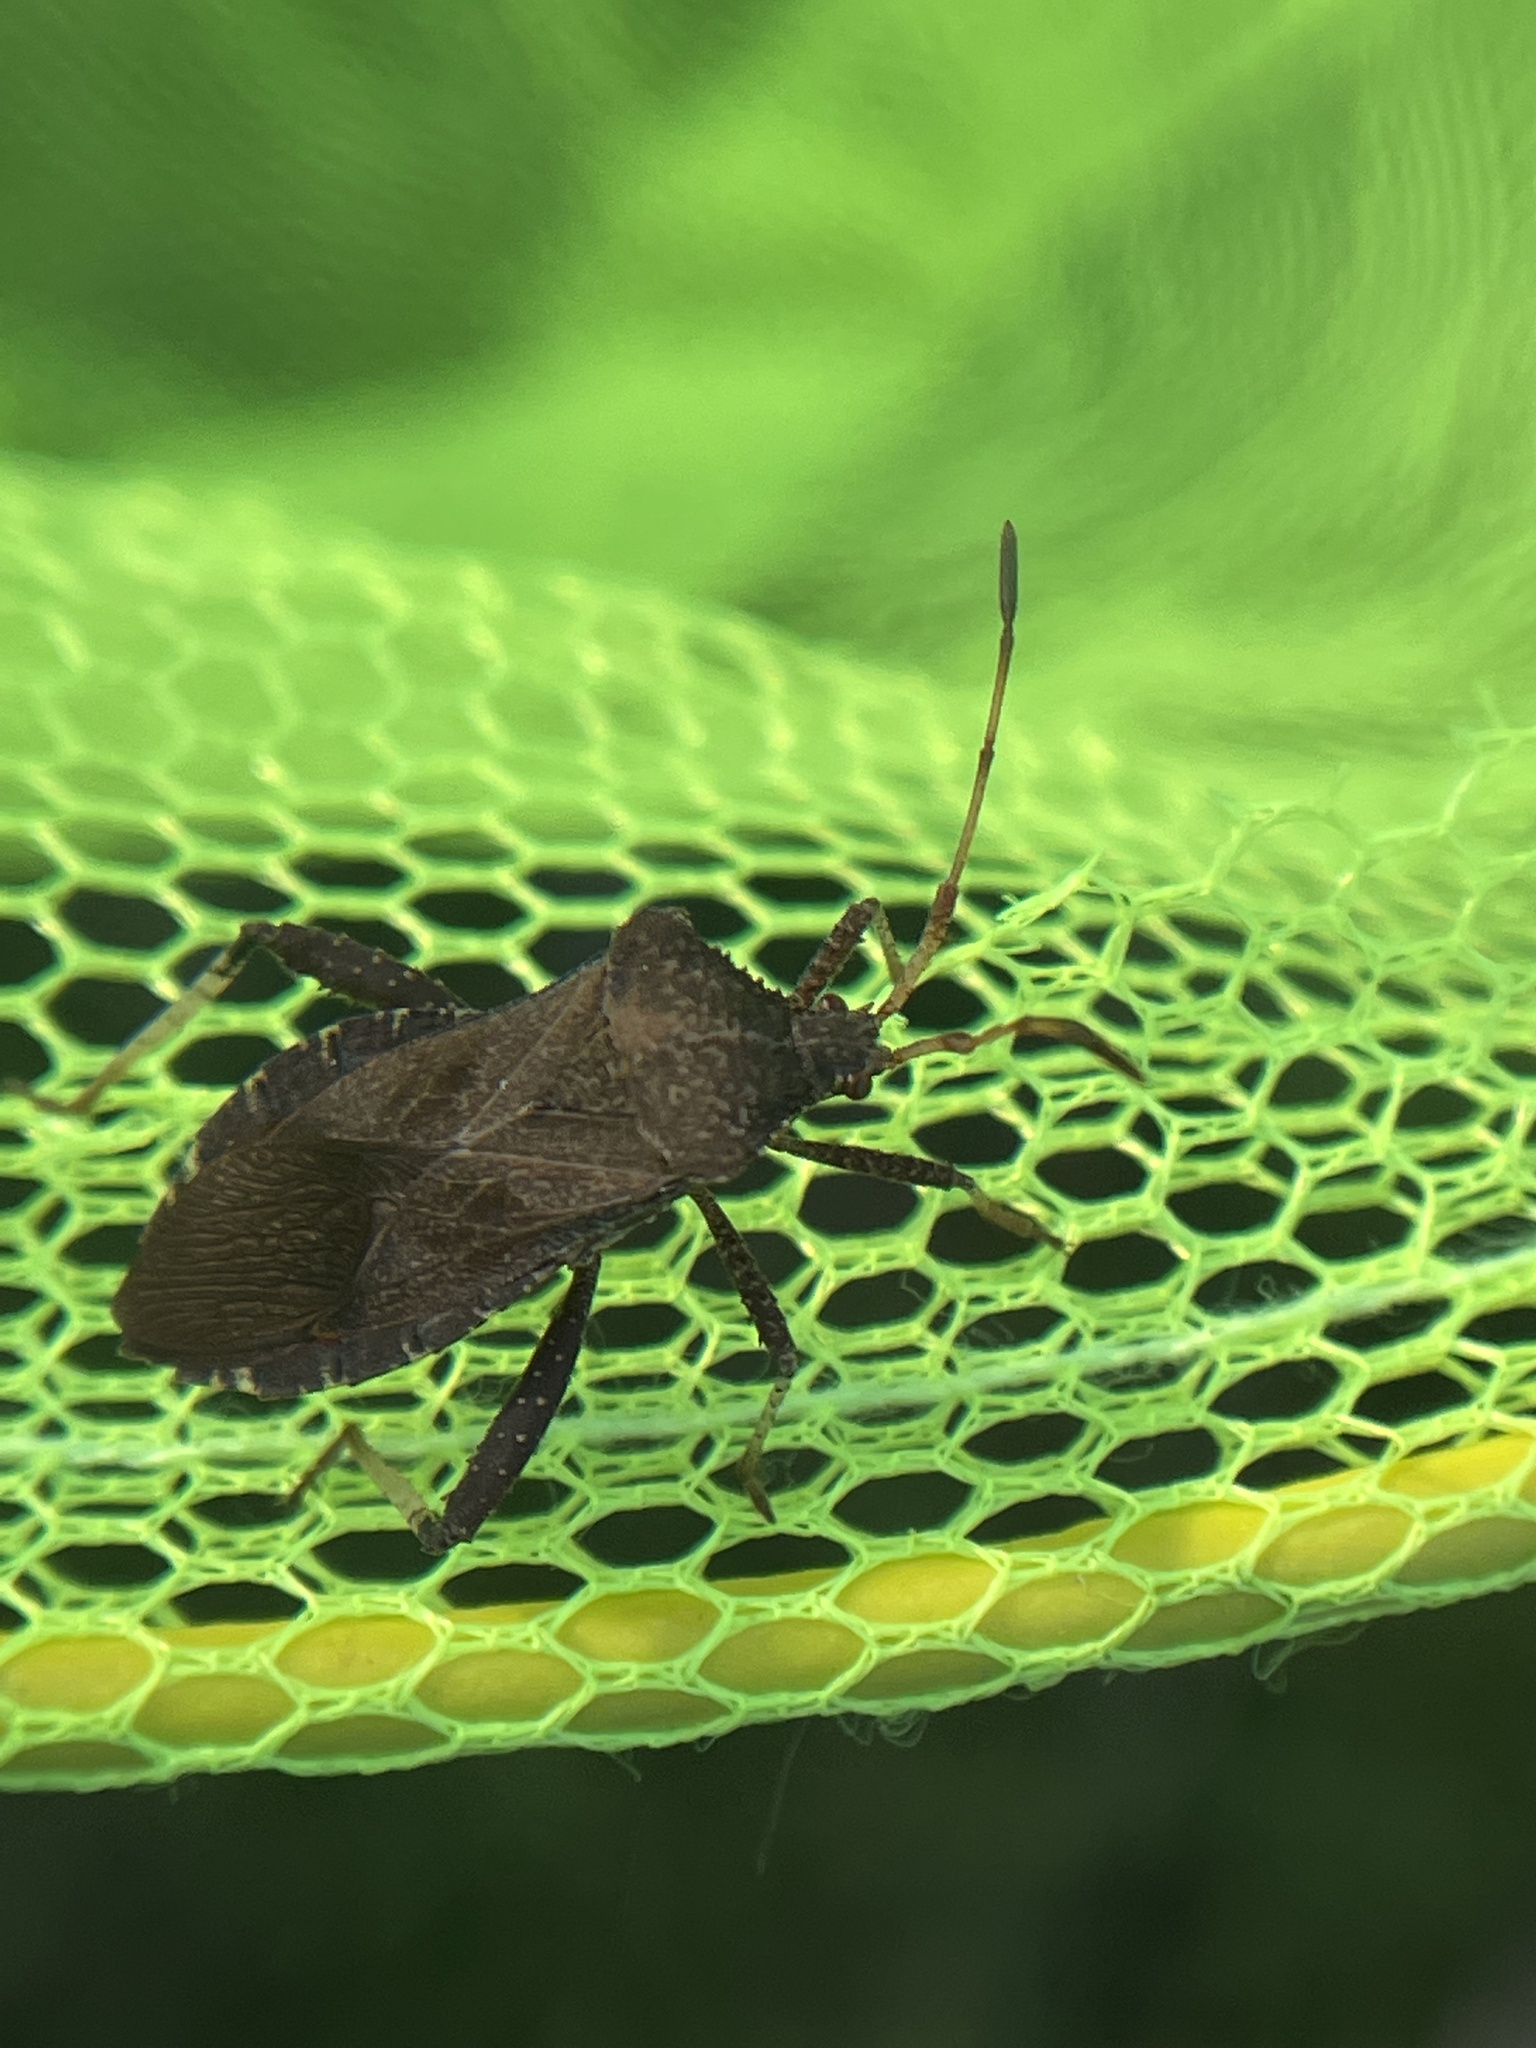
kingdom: Animalia
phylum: Arthropoda
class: Insecta
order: Hemiptera
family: Coreidae
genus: Euthochtha
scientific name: Euthochtha galeator
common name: Helmeted squash bug
